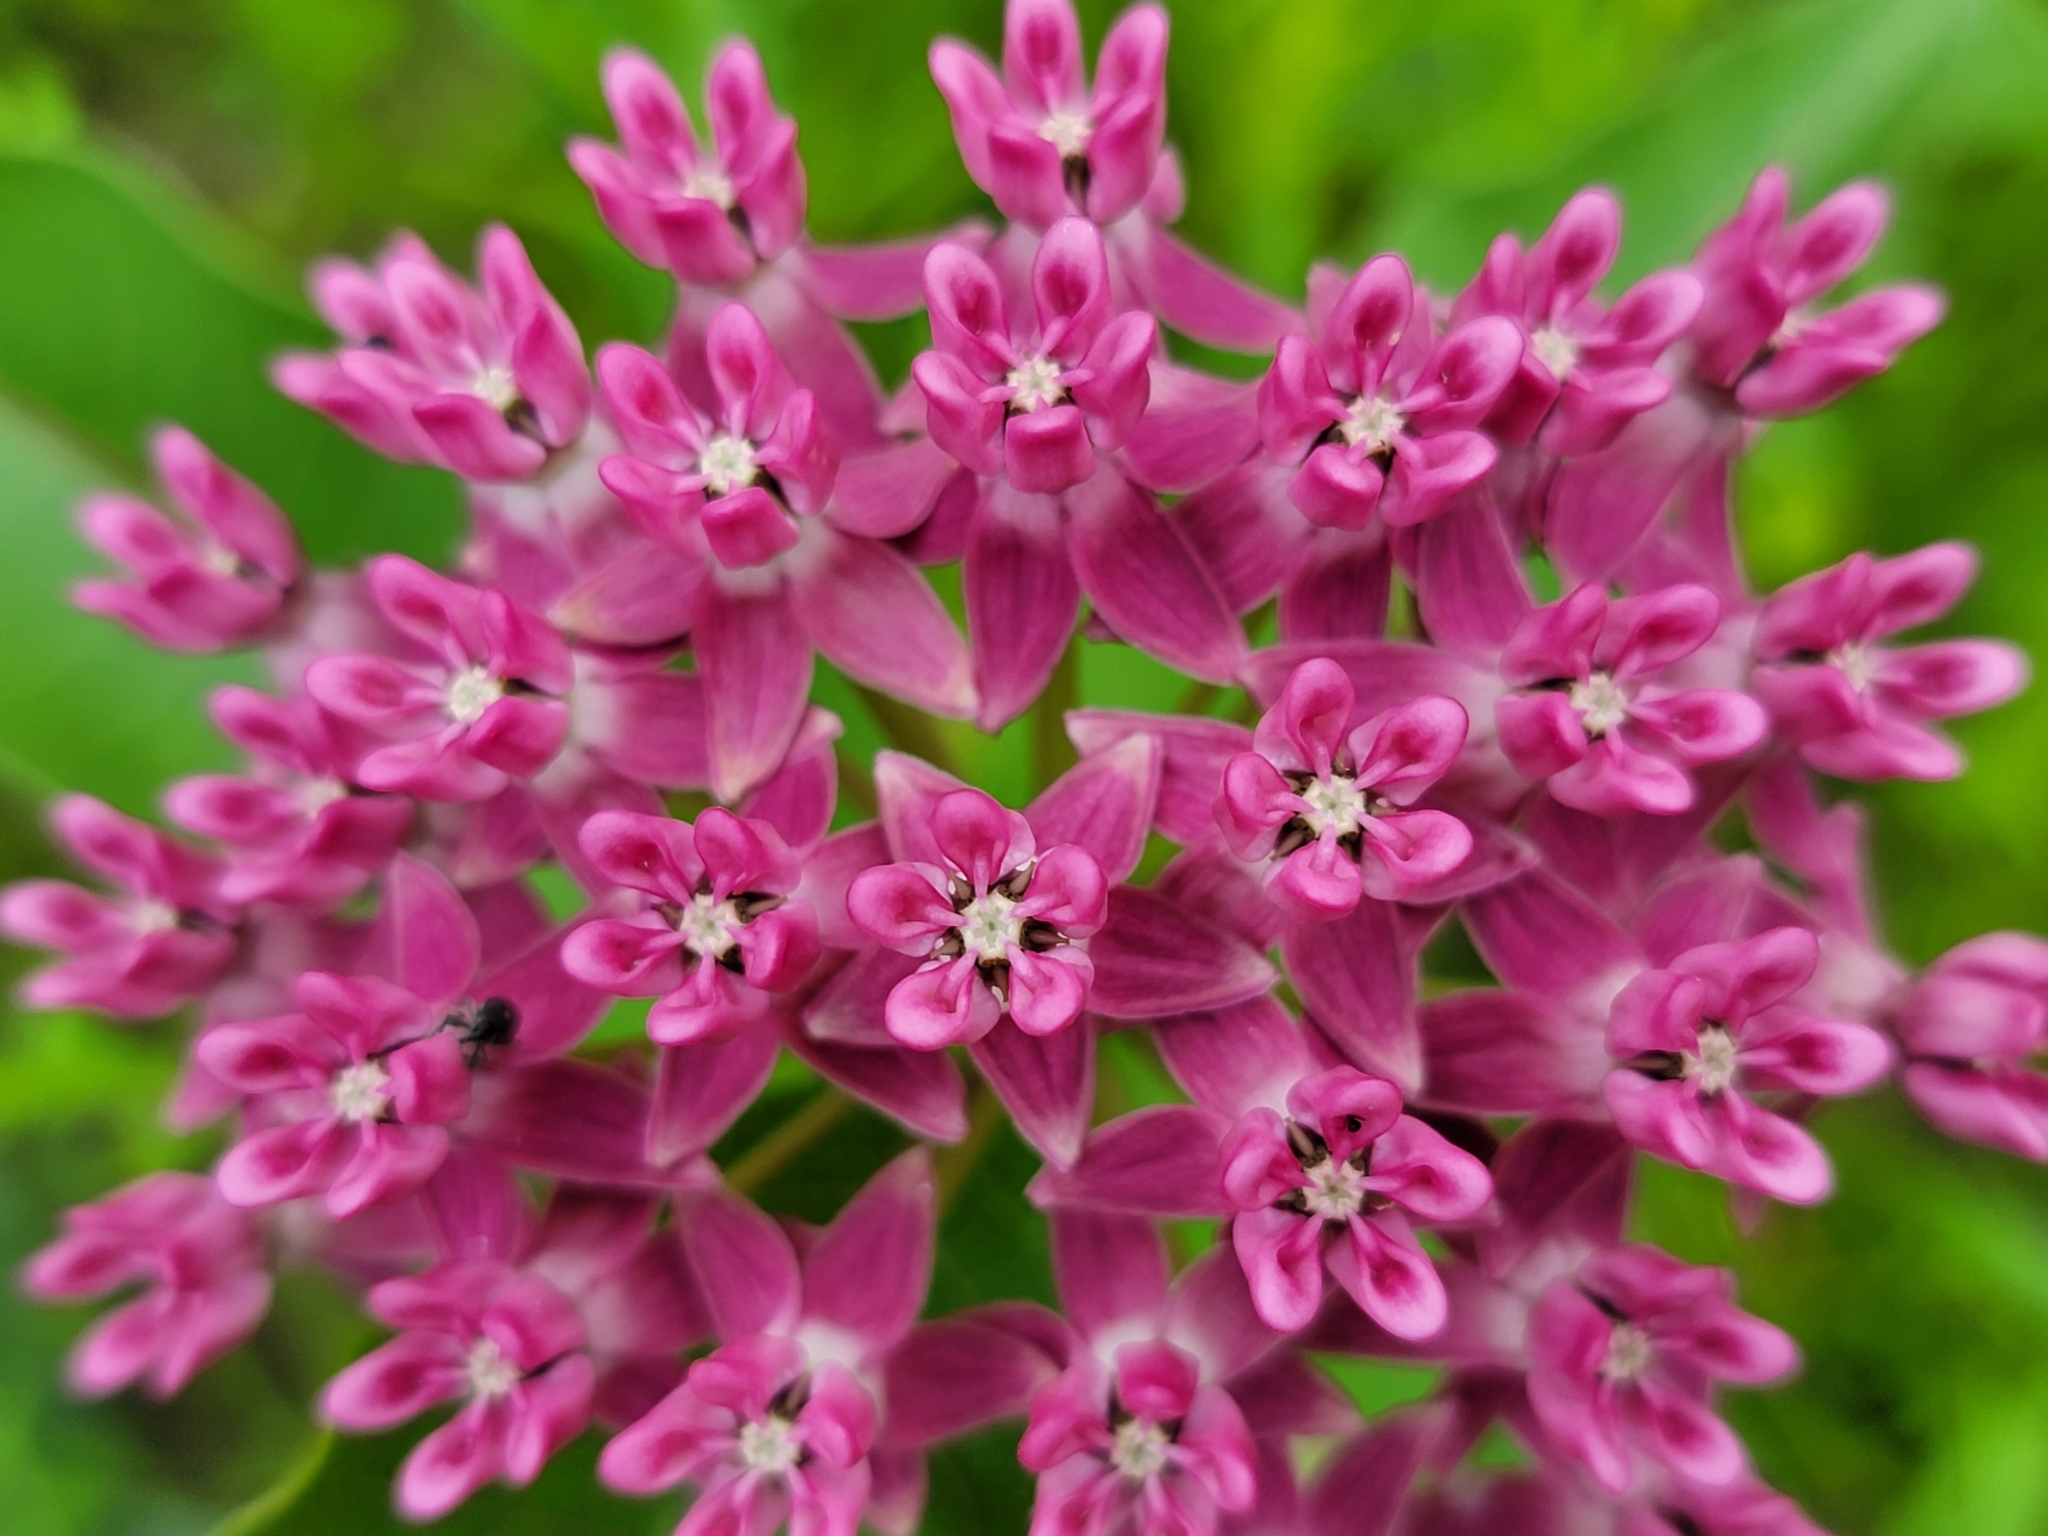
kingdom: Plantae
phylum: Tracheophyta
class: Magnoliopsida
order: Gentianales
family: Apocynaceae
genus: Asclepias
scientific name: Asclepias purpurascens
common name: Purple milkweed
